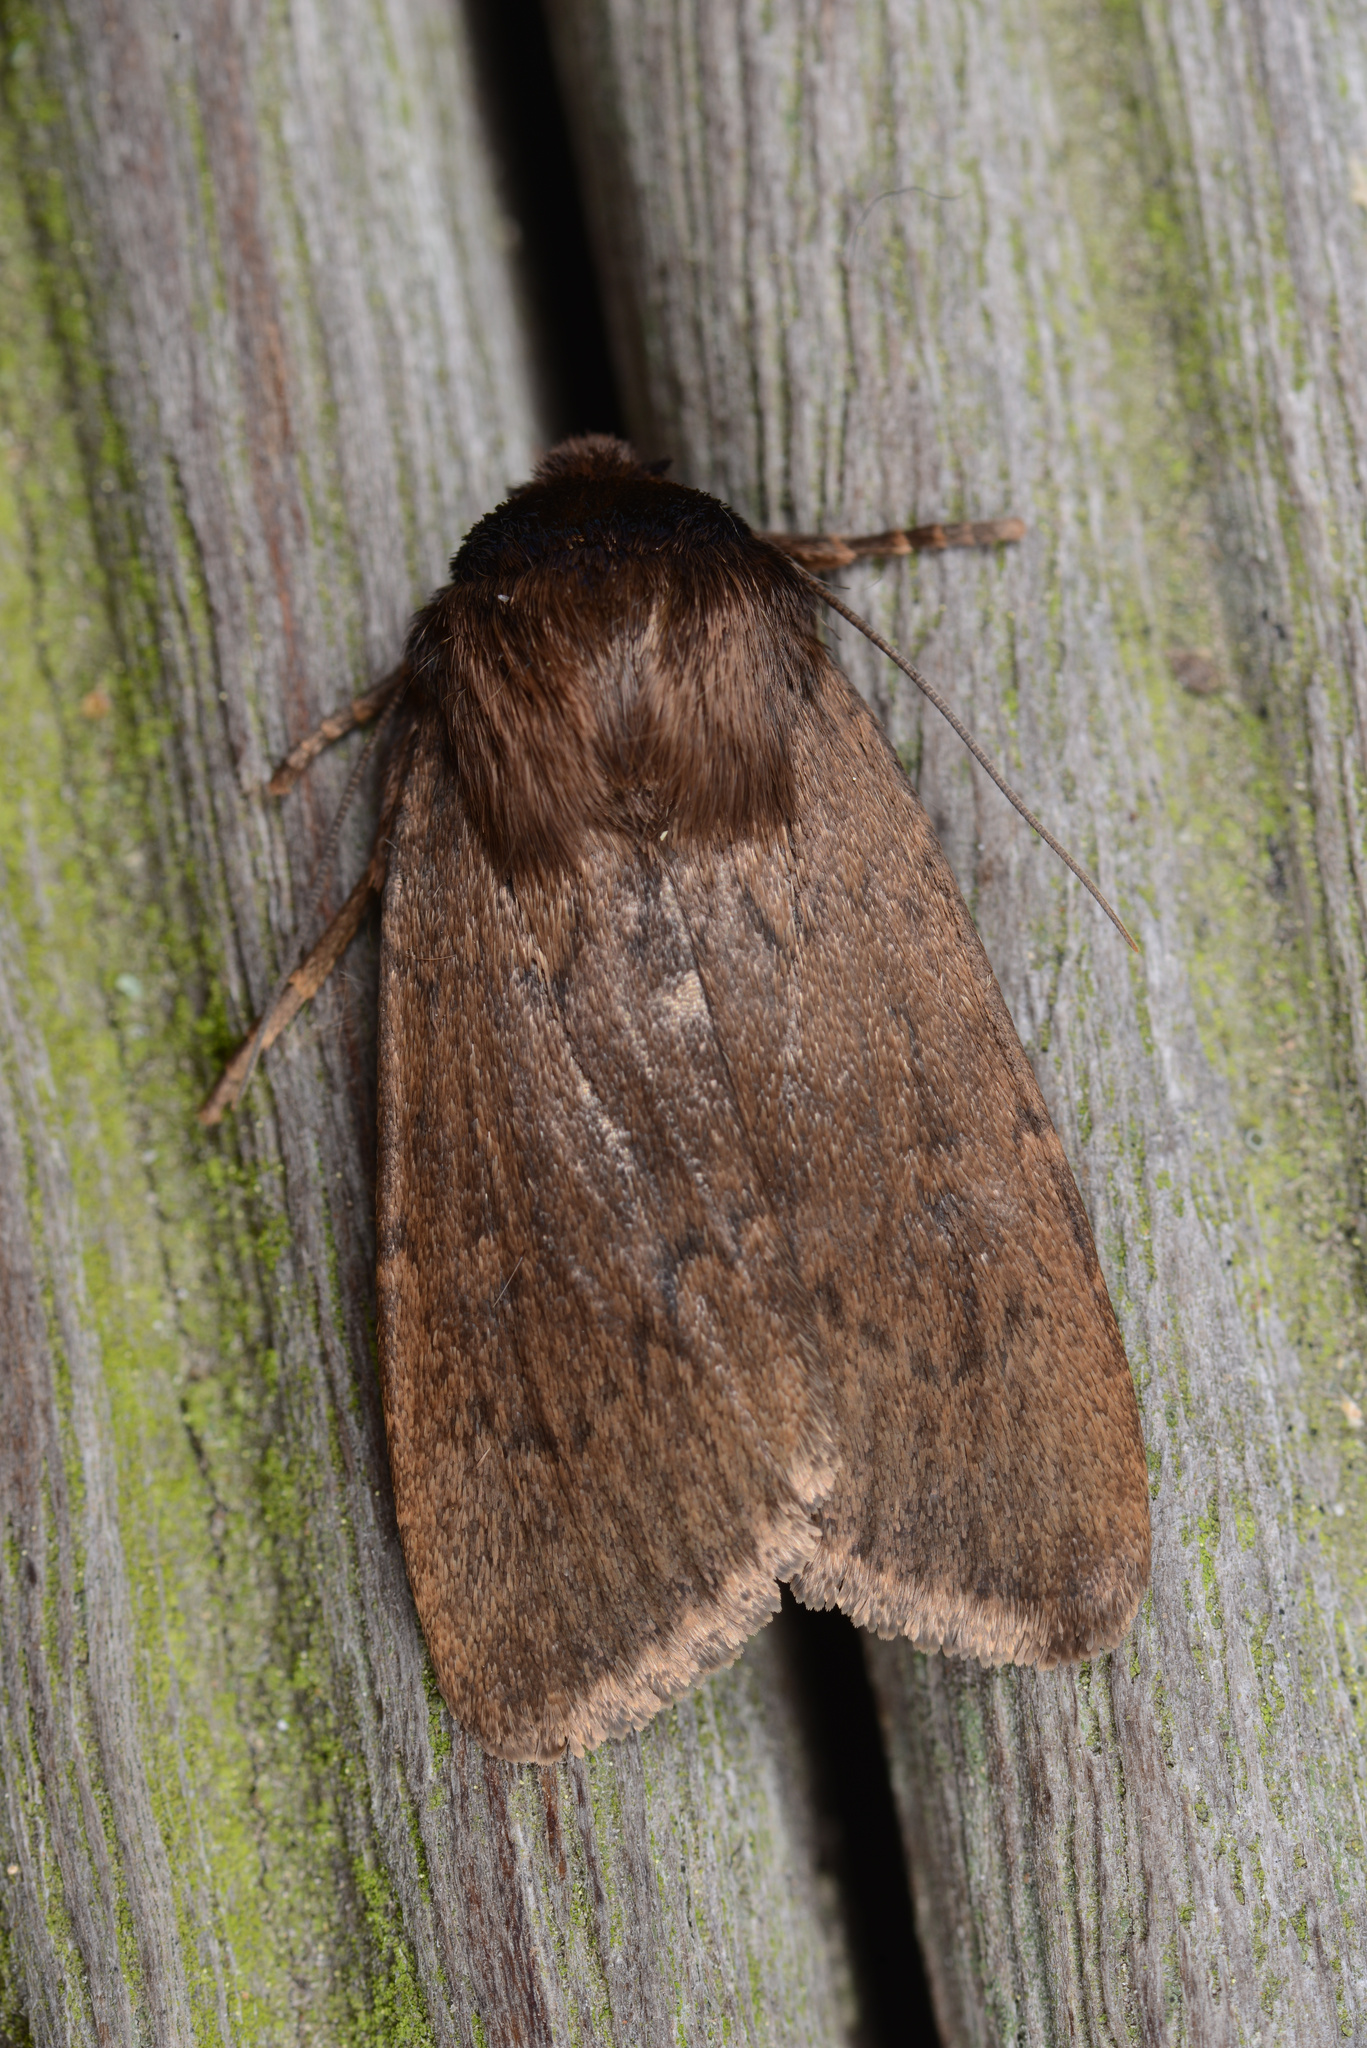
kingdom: Animalia
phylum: Arthropoda
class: Insecta
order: Lepidoptera
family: Noctuidae
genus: Bityla
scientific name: Bityla defigurata
